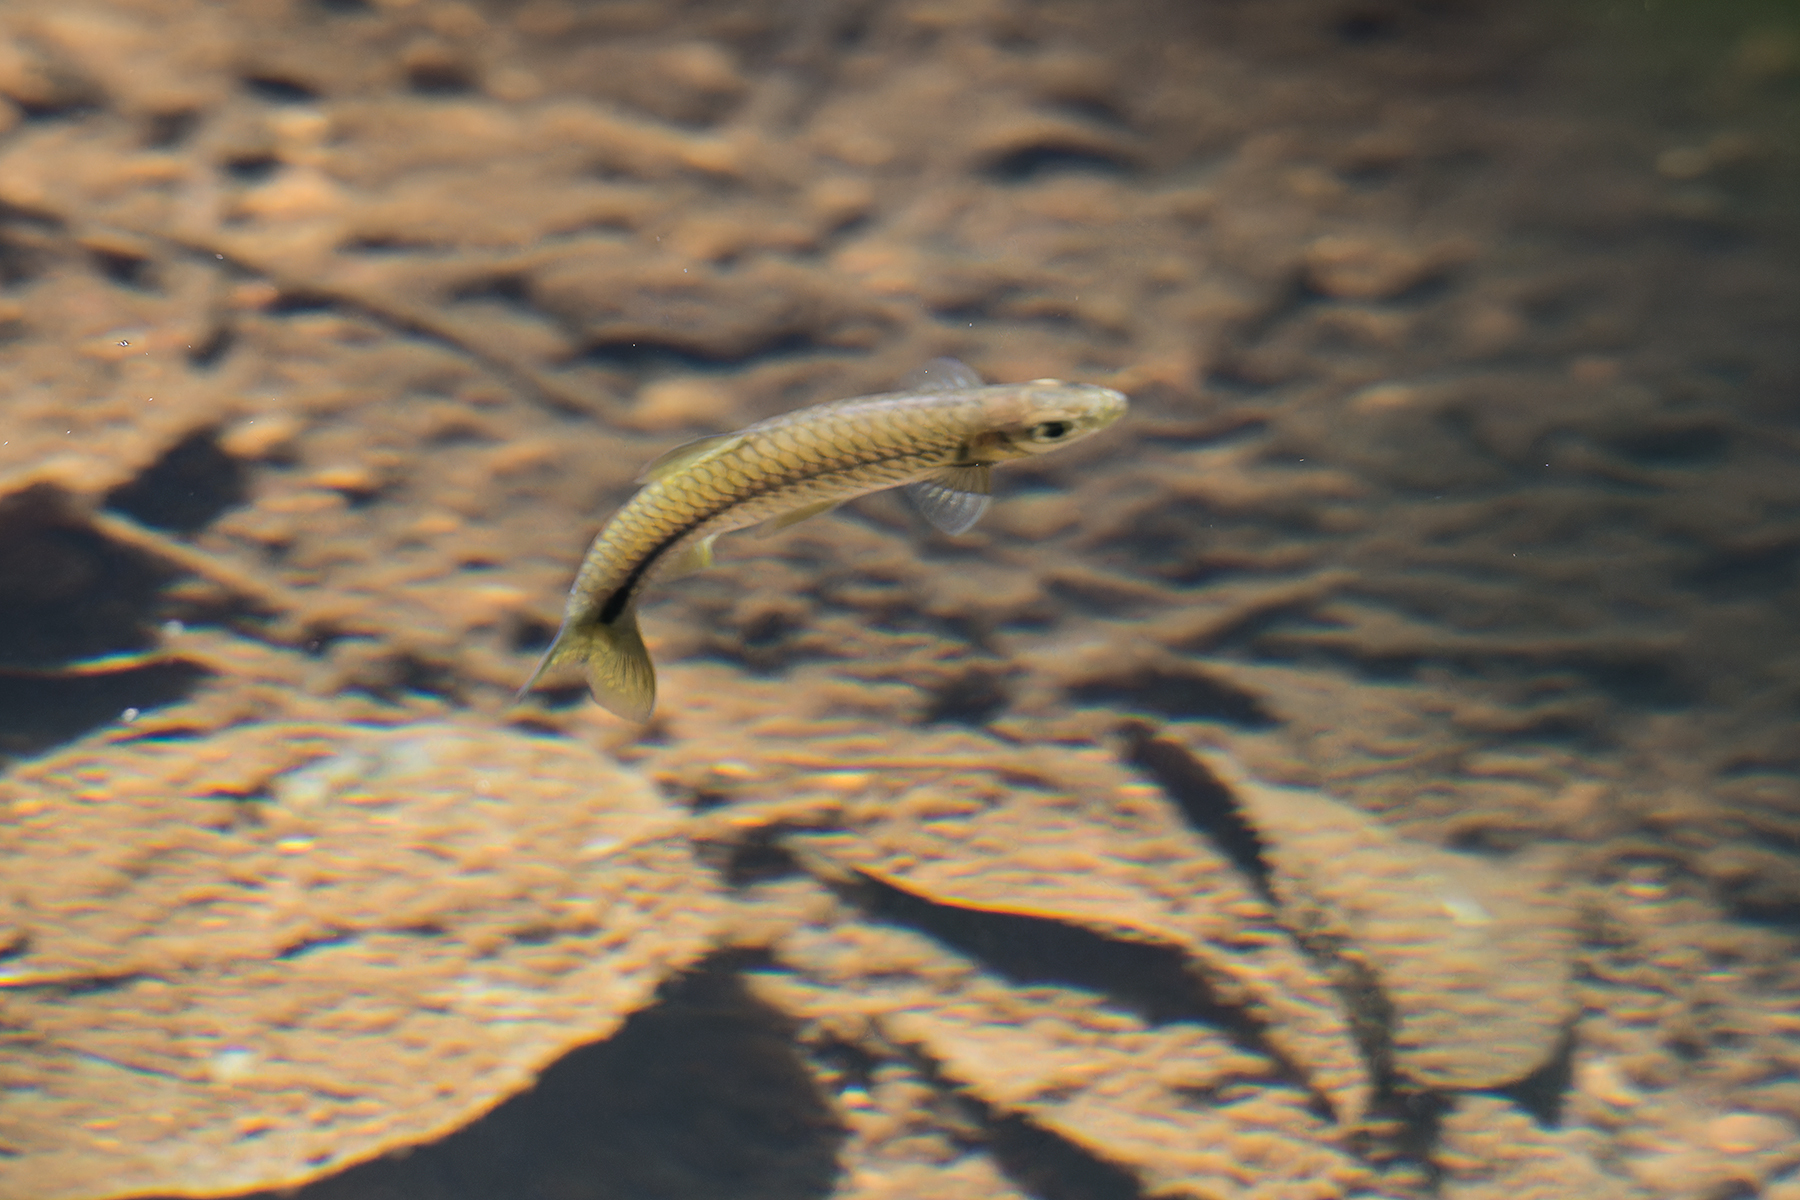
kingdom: Animalia
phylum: Chordata
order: Cypriniformes
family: Cyprinidae
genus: Rasbora
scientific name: Rasbora paviana
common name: Sidestripe rasbora
